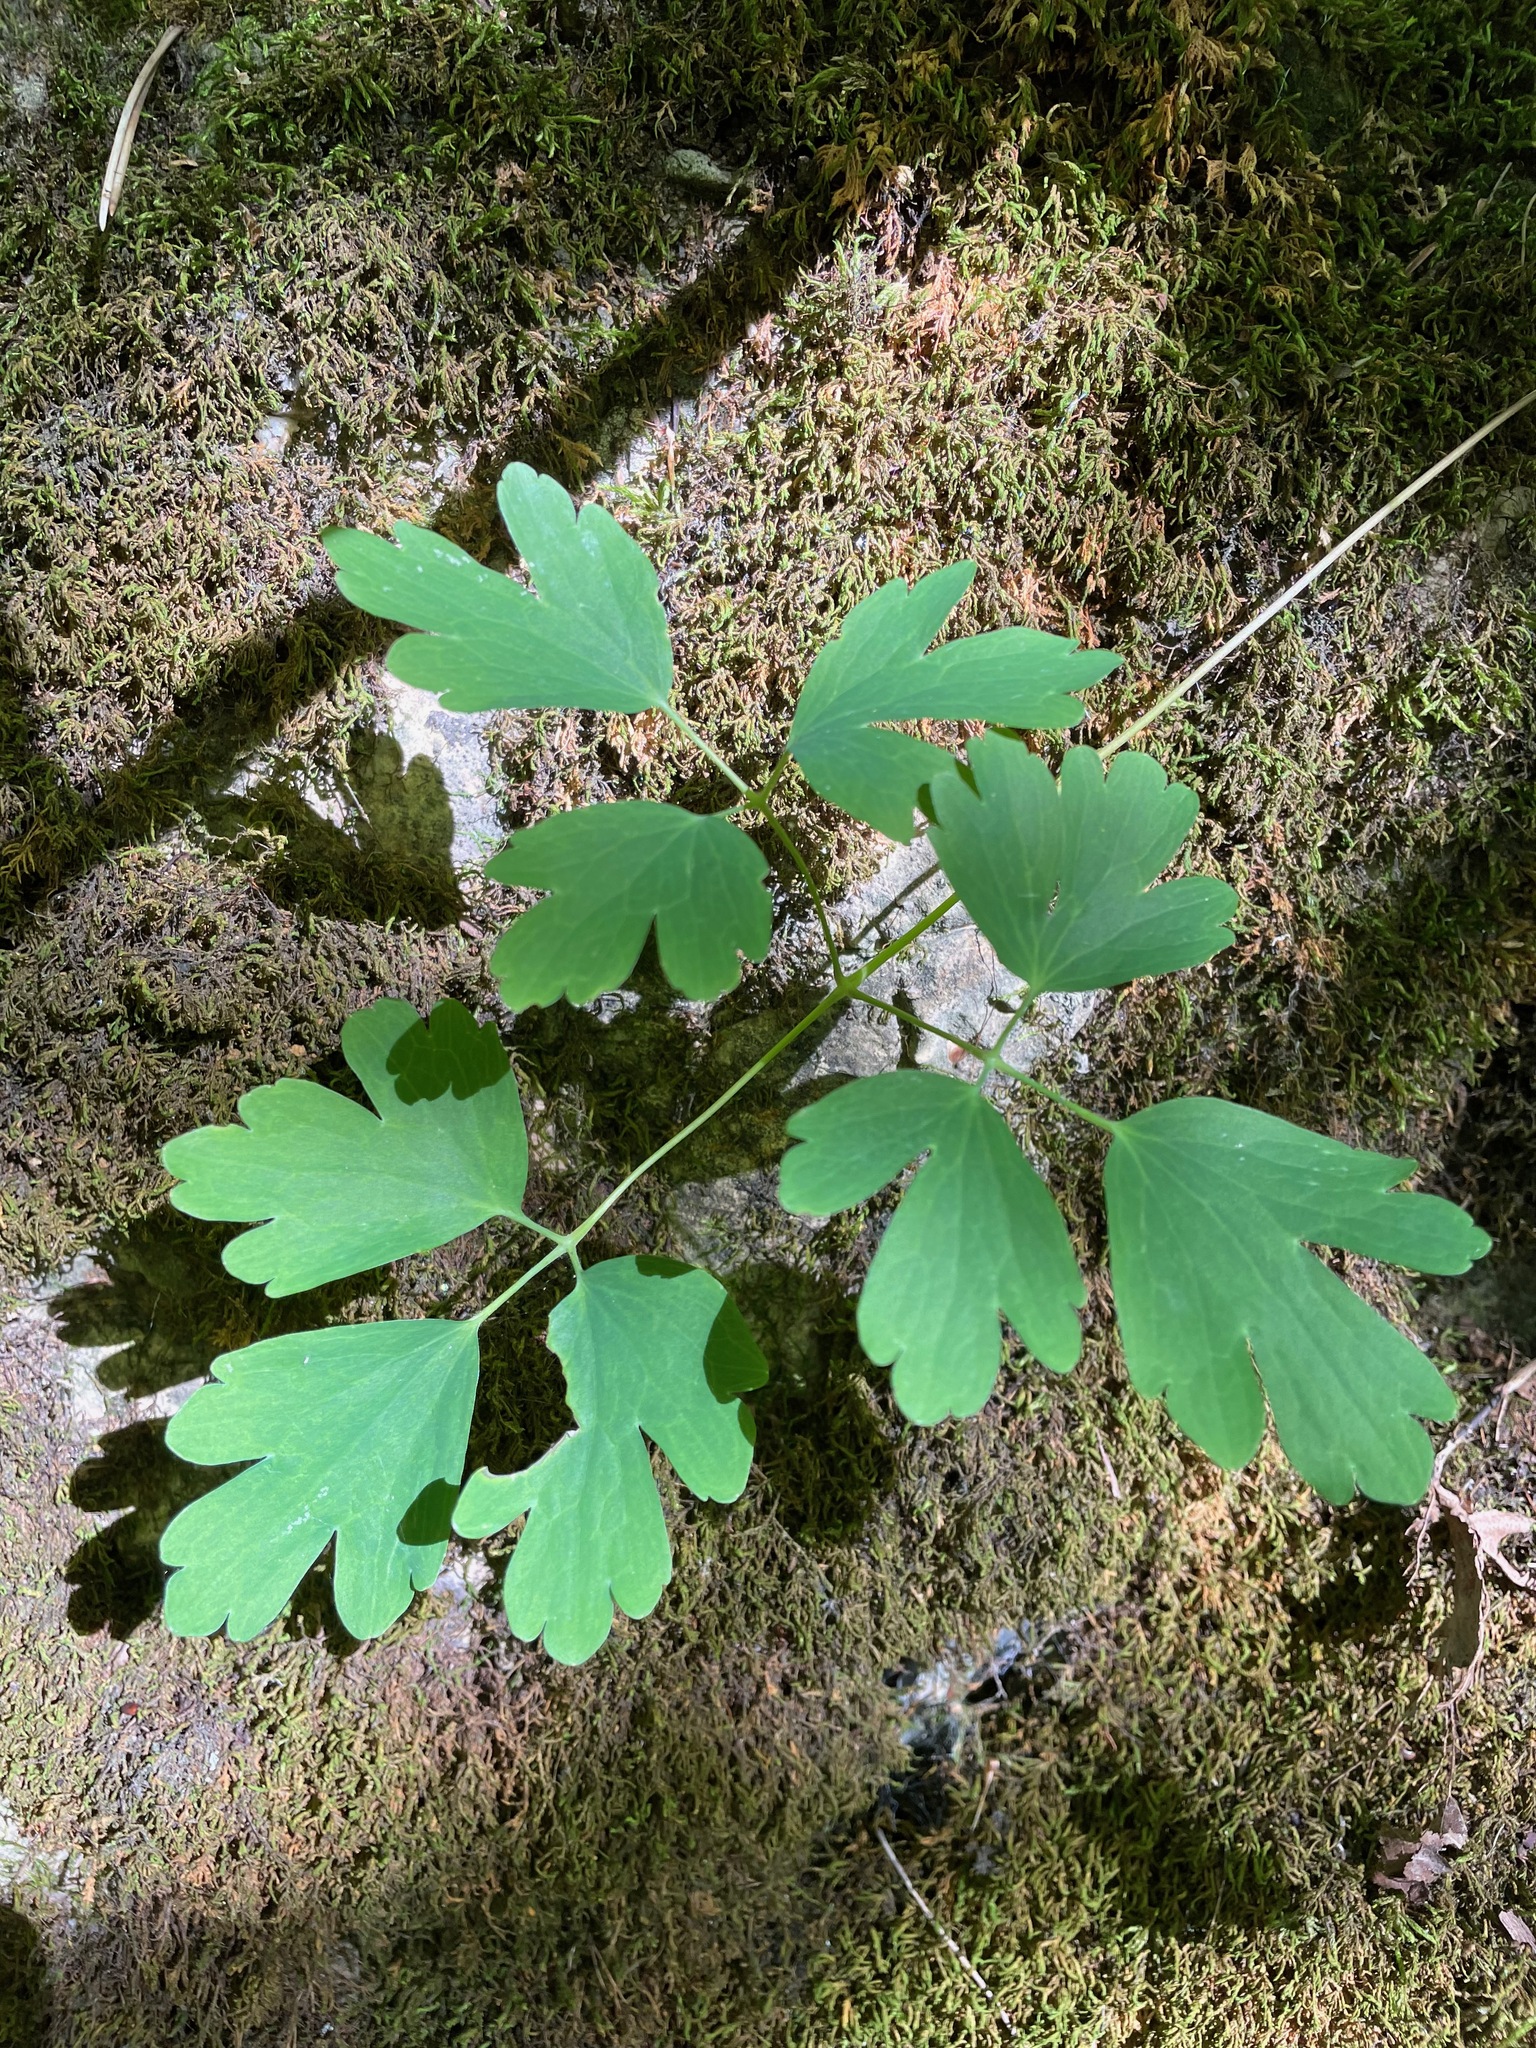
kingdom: Plantae
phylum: Tracheophyta
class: Magnoliopsida
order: Ranunculales
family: Ranunculaceae
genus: Aquilegia
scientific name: Aquilegia canadensis
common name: American columbine
